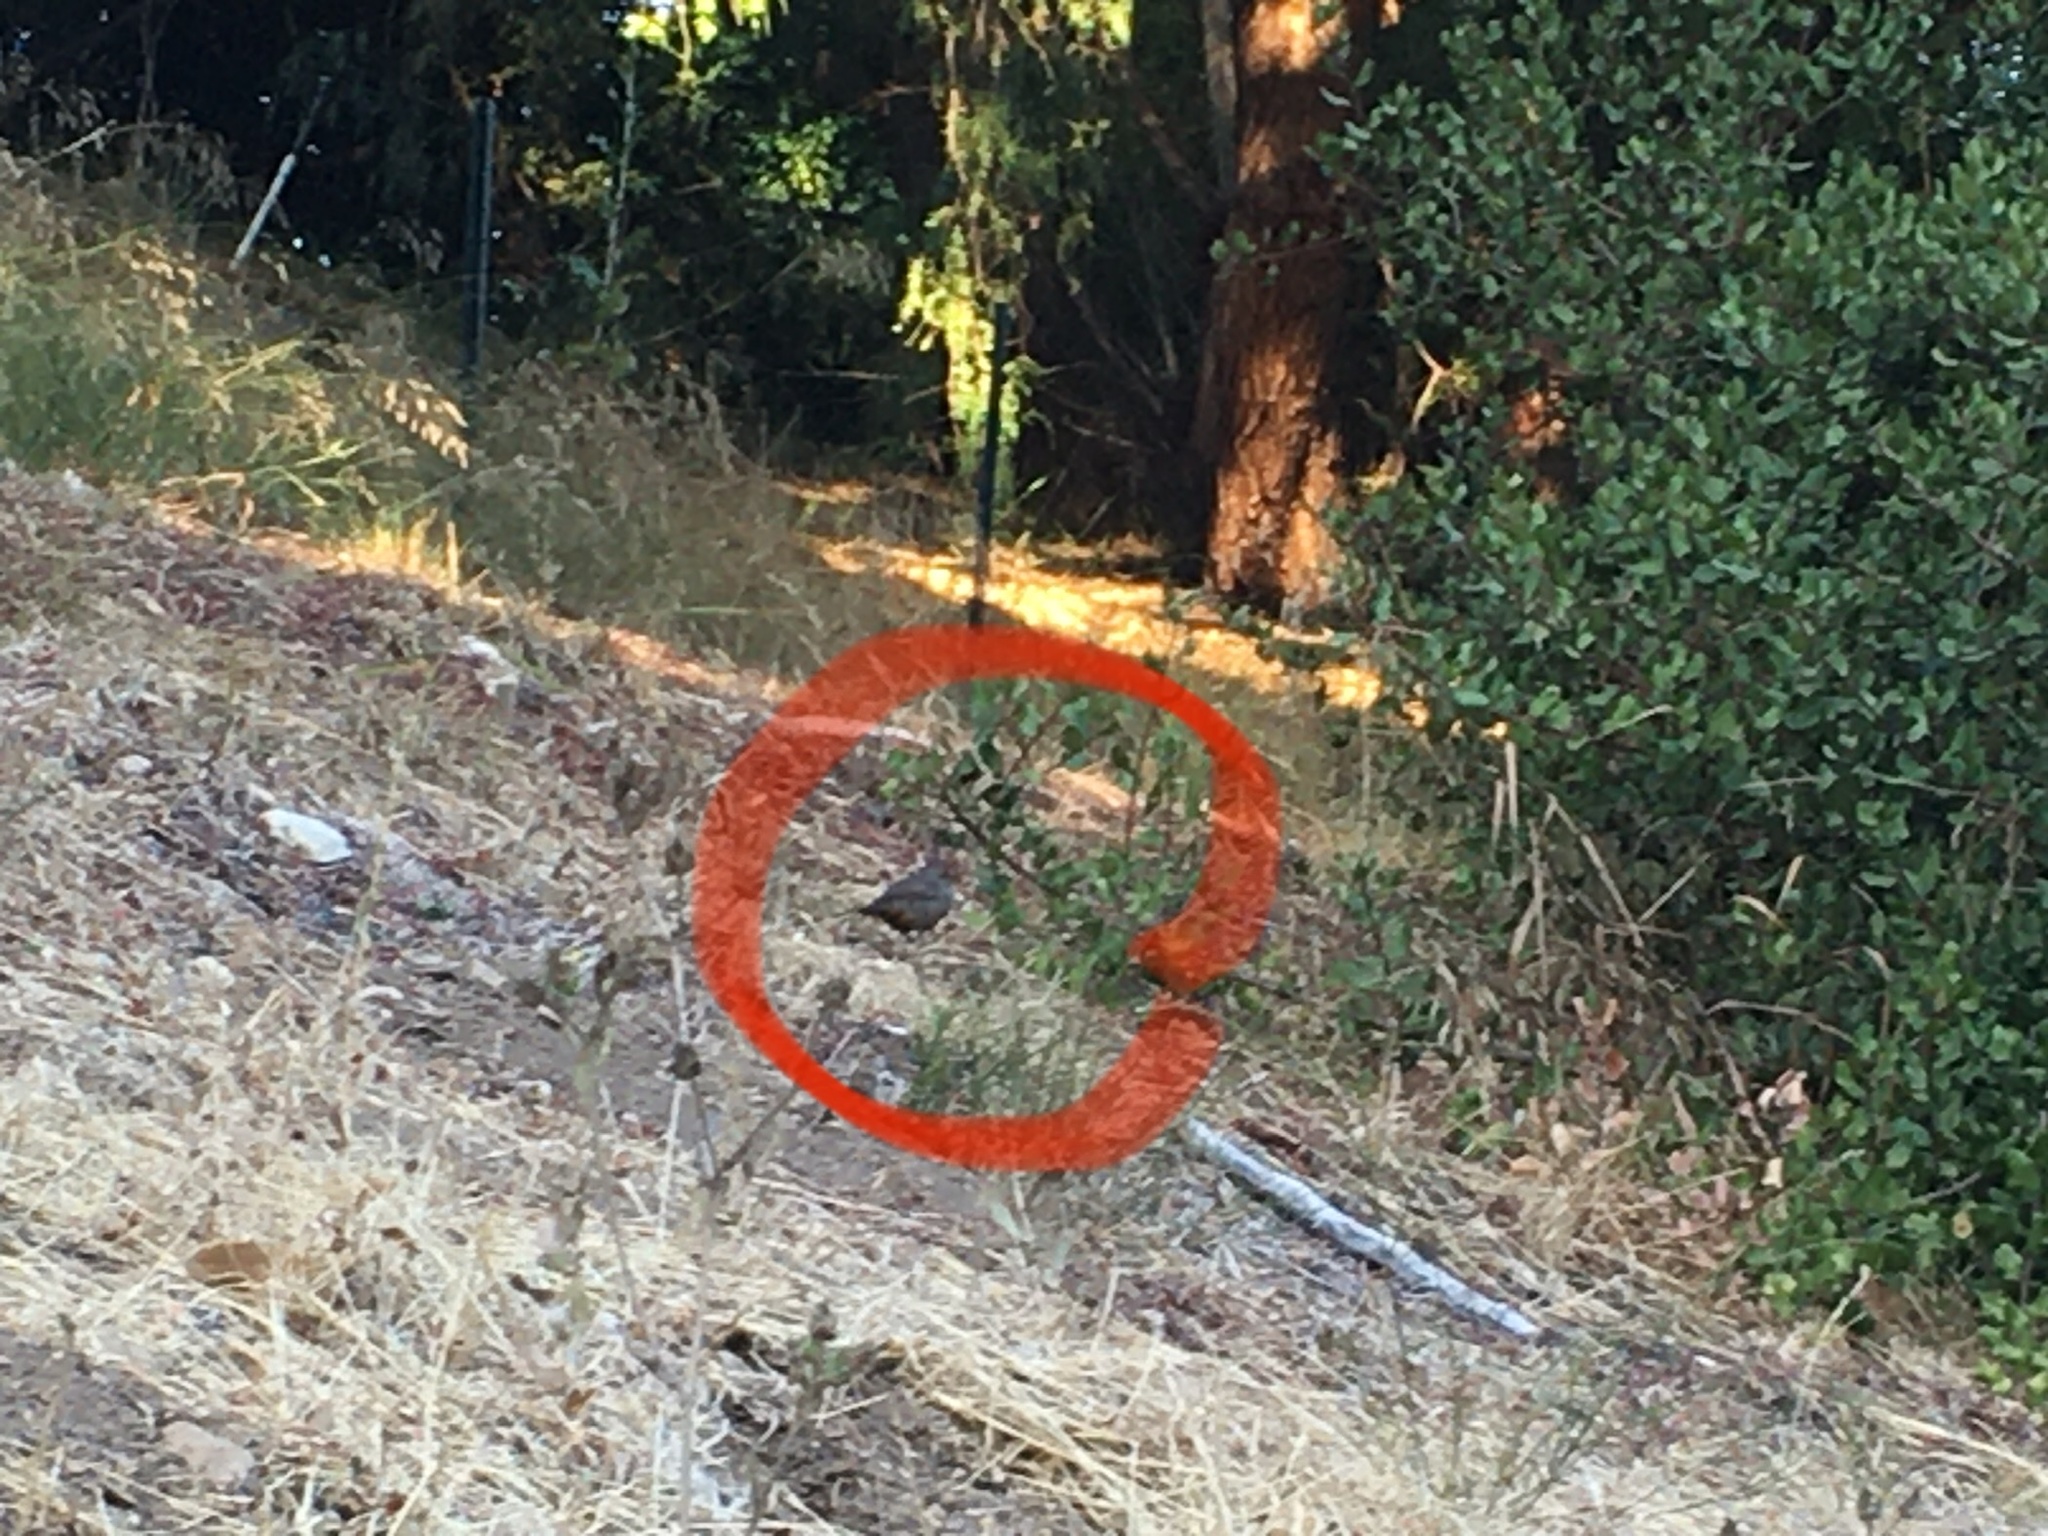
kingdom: Animalia
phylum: Chordata
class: Aves
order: Passeriformes
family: Passerellidae
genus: Melozone
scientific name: Melozone crissalis
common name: California towhee
